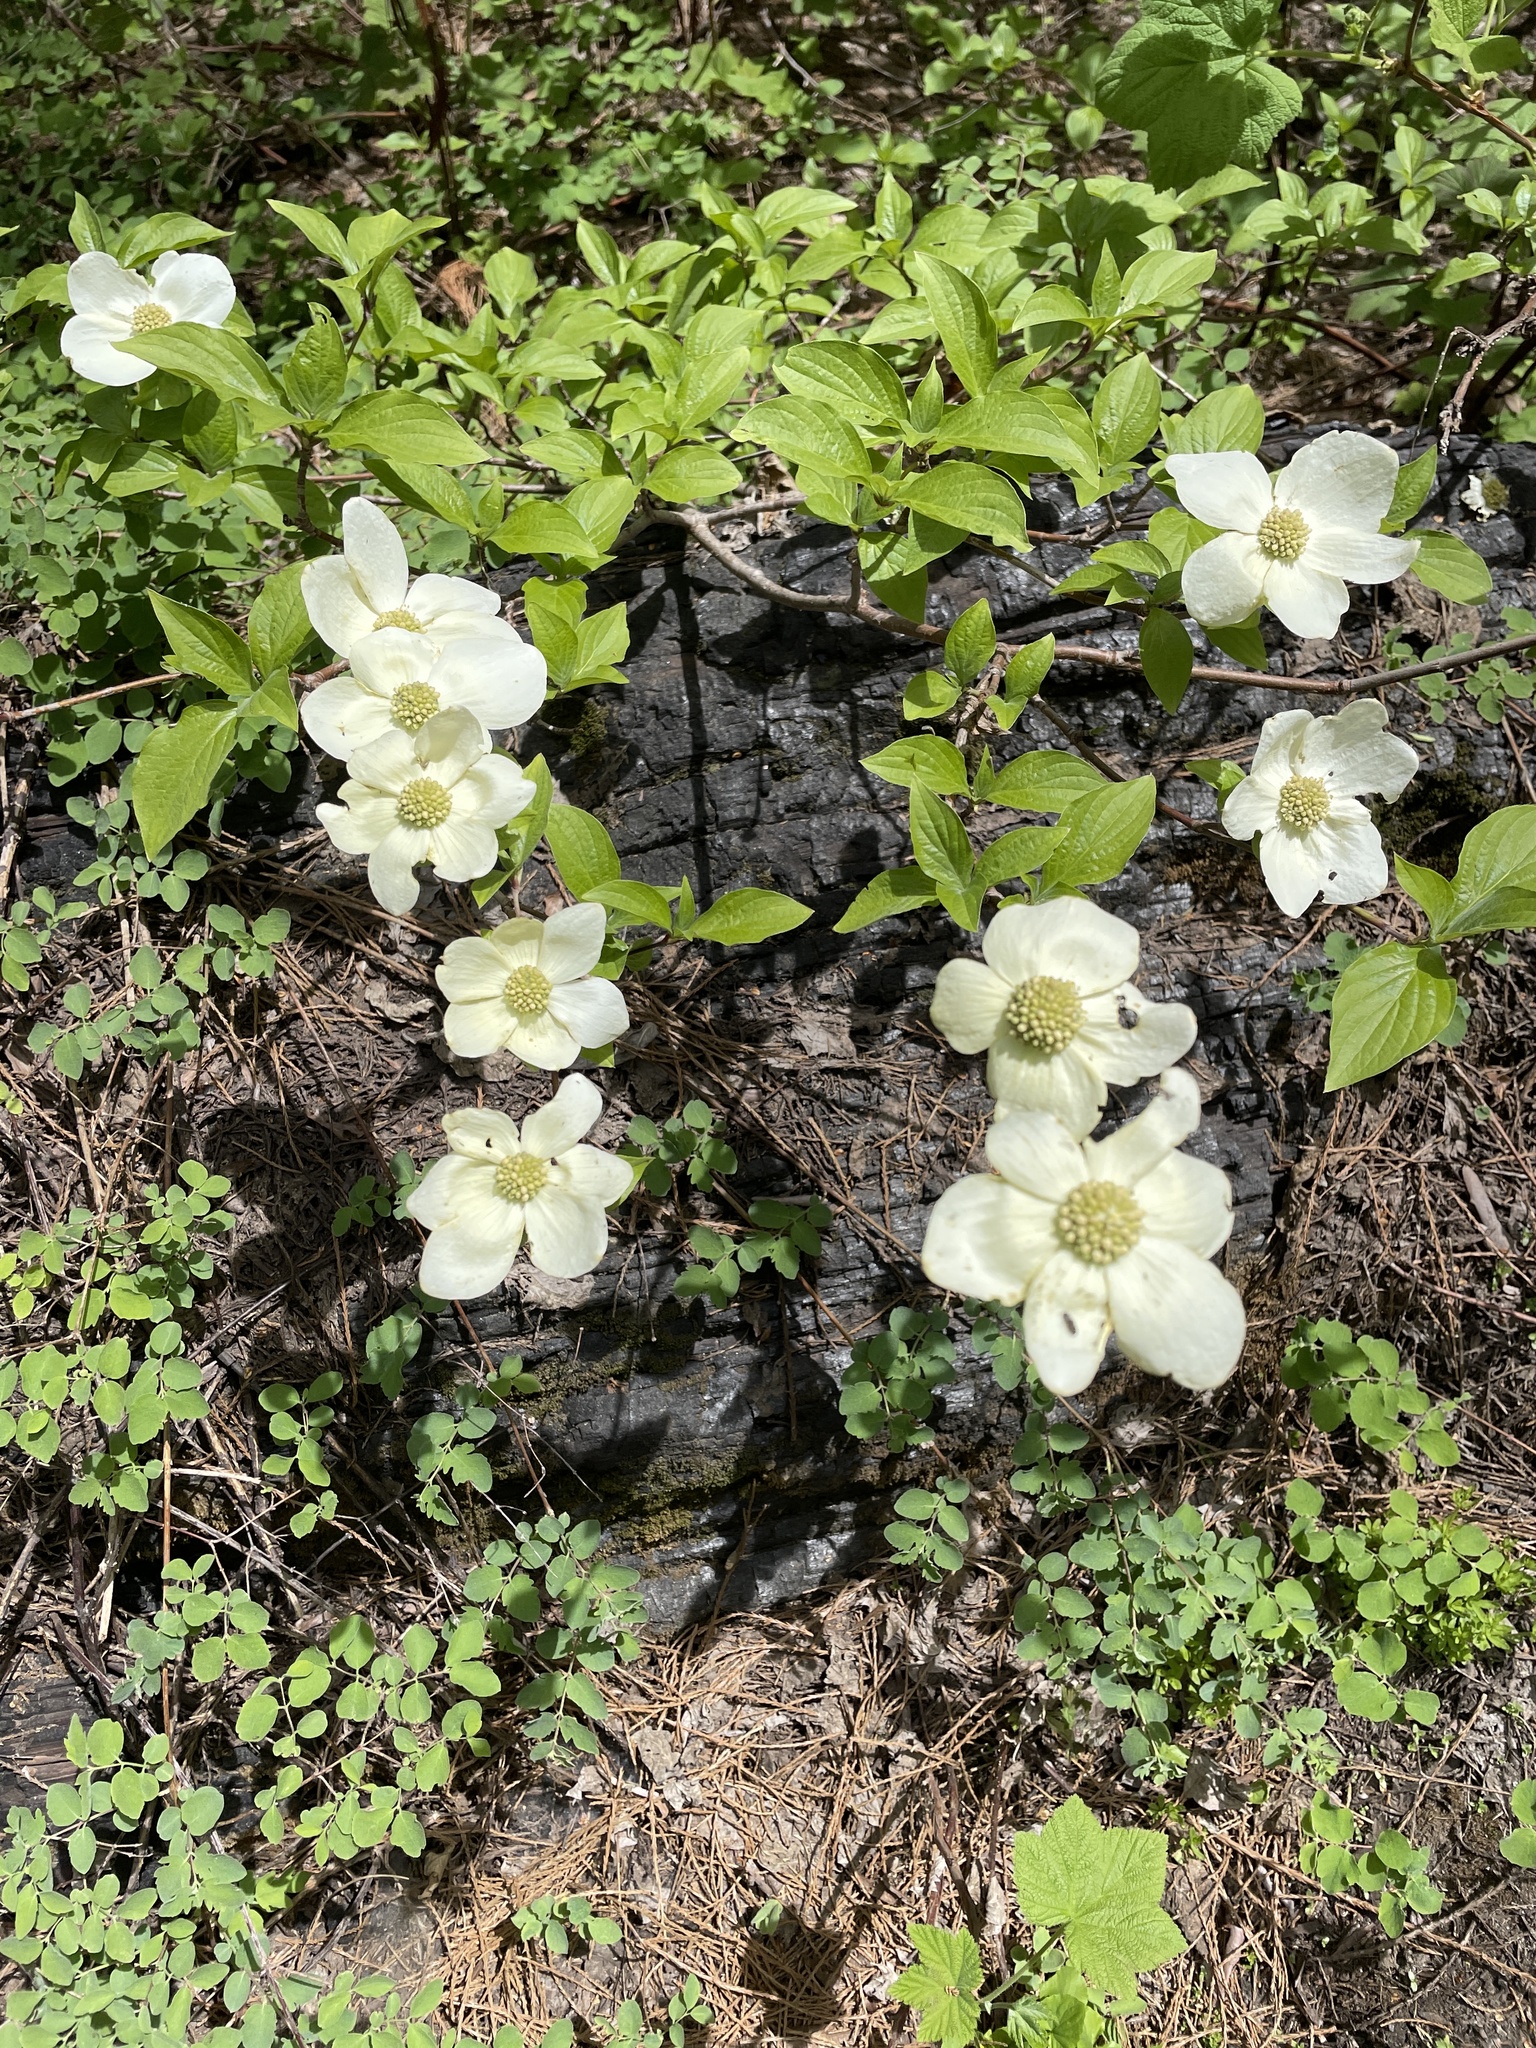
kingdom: Plantae
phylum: Tracheophyta
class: Magnoliopsida
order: Cornales
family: Cornaceae
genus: Cornus
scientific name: Cornus nuttallii
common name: Pacific dogwood
